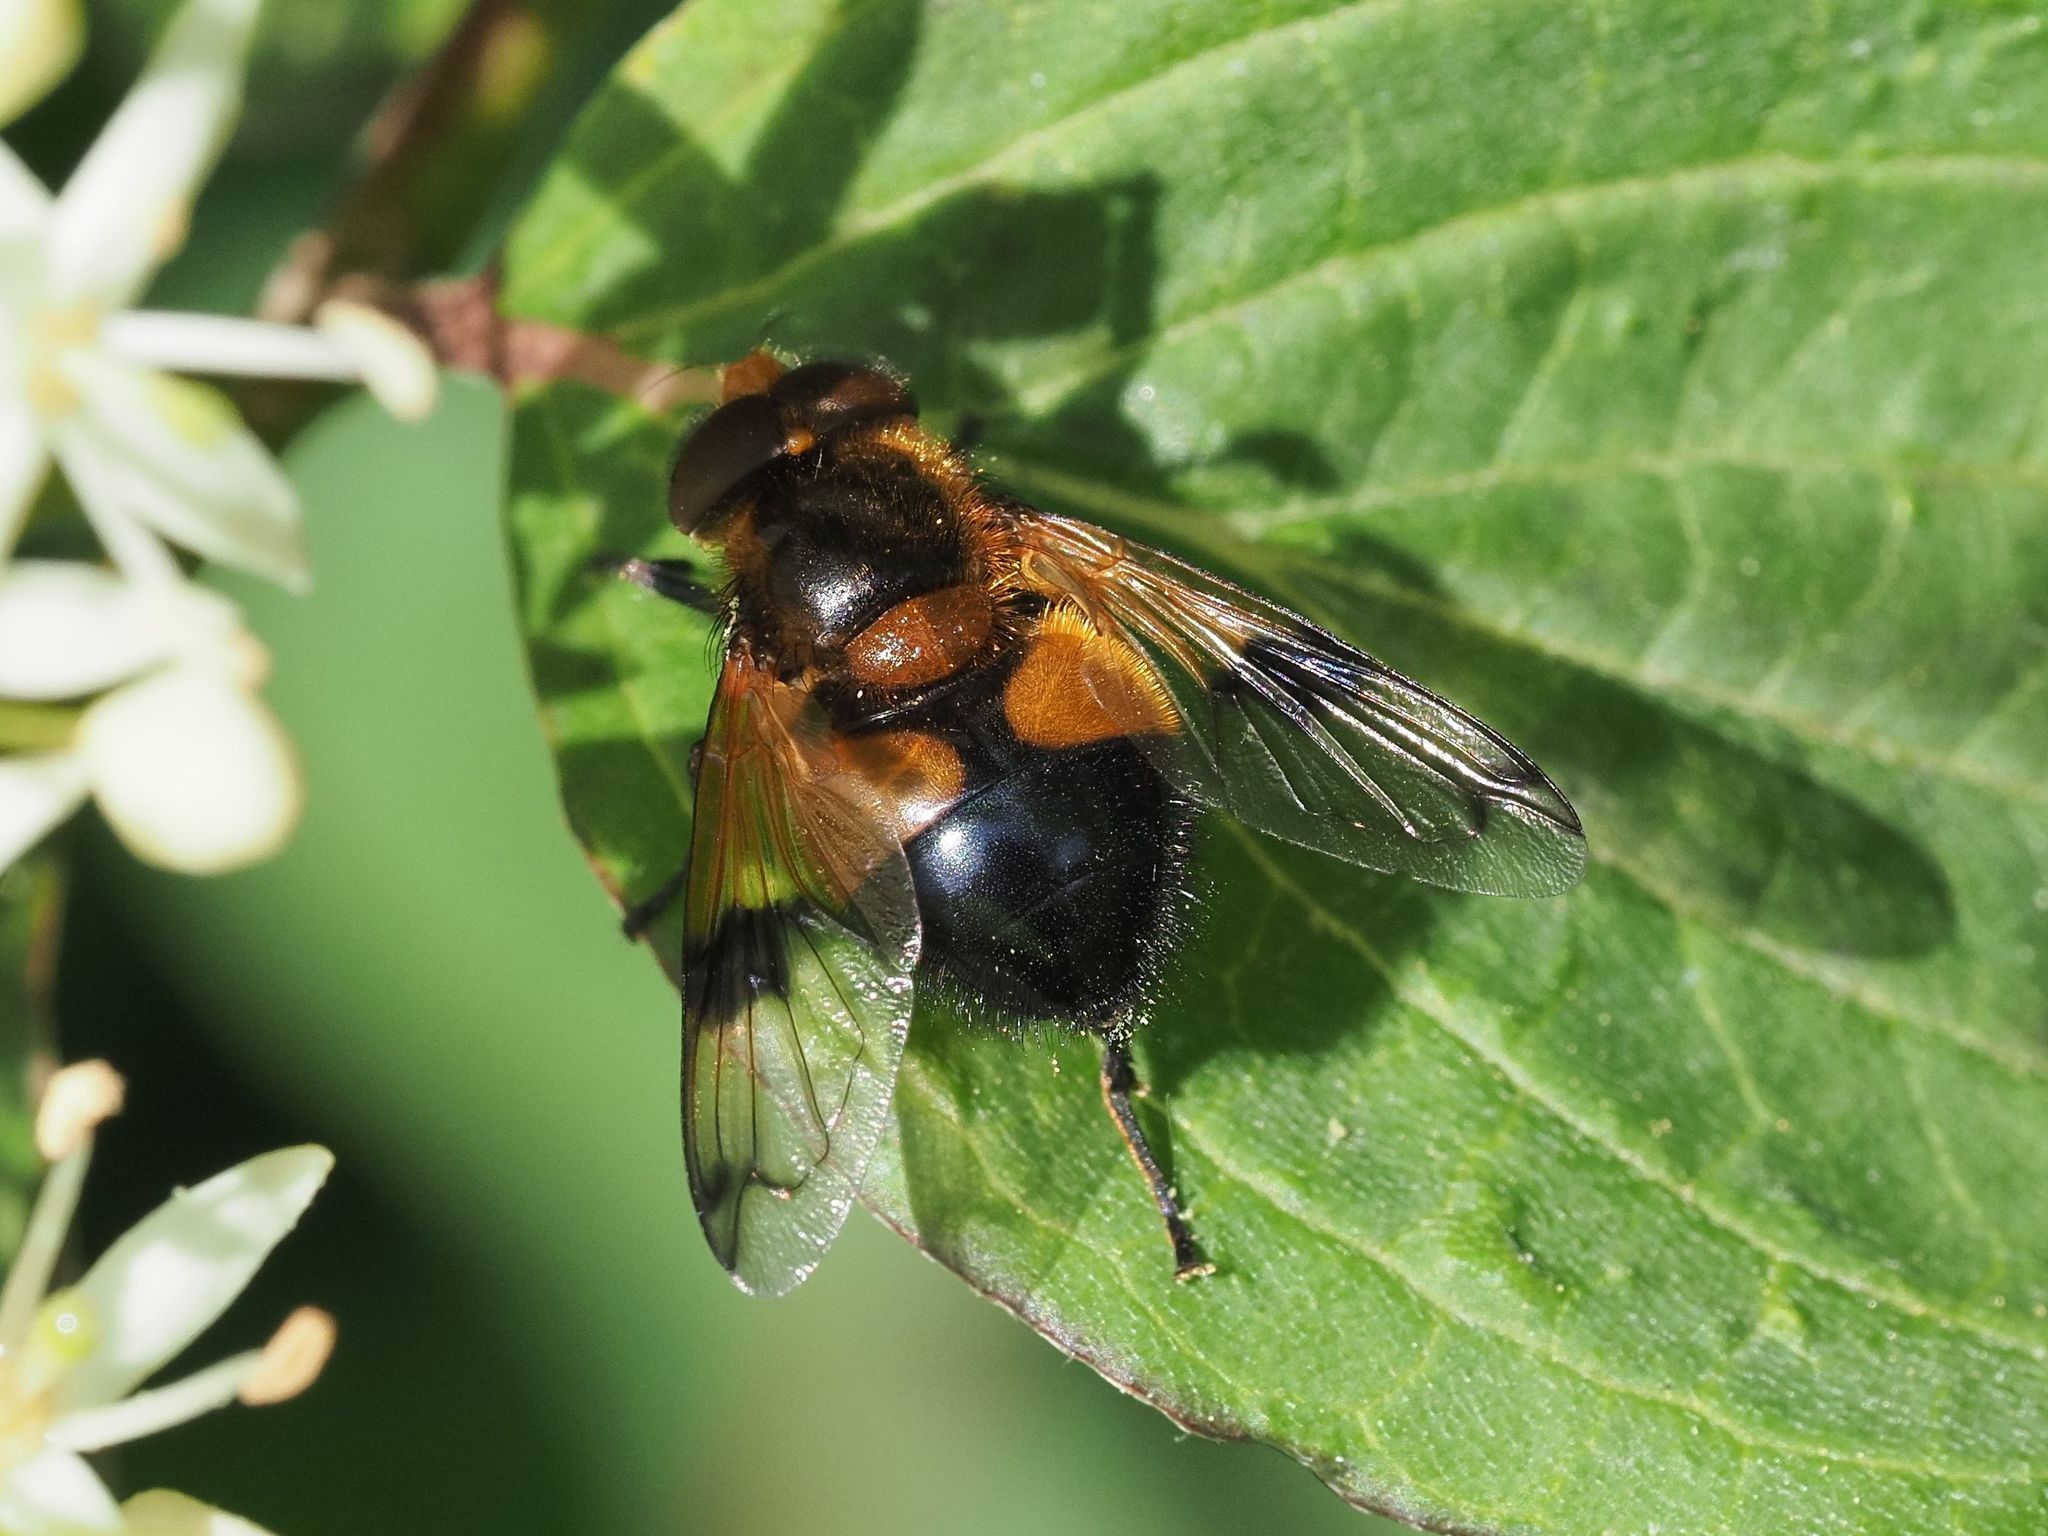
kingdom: Animalia
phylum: Arthropoda
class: Insecta
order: Diptera
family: Syrphidae
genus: Volucella
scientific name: Volucella inflata
